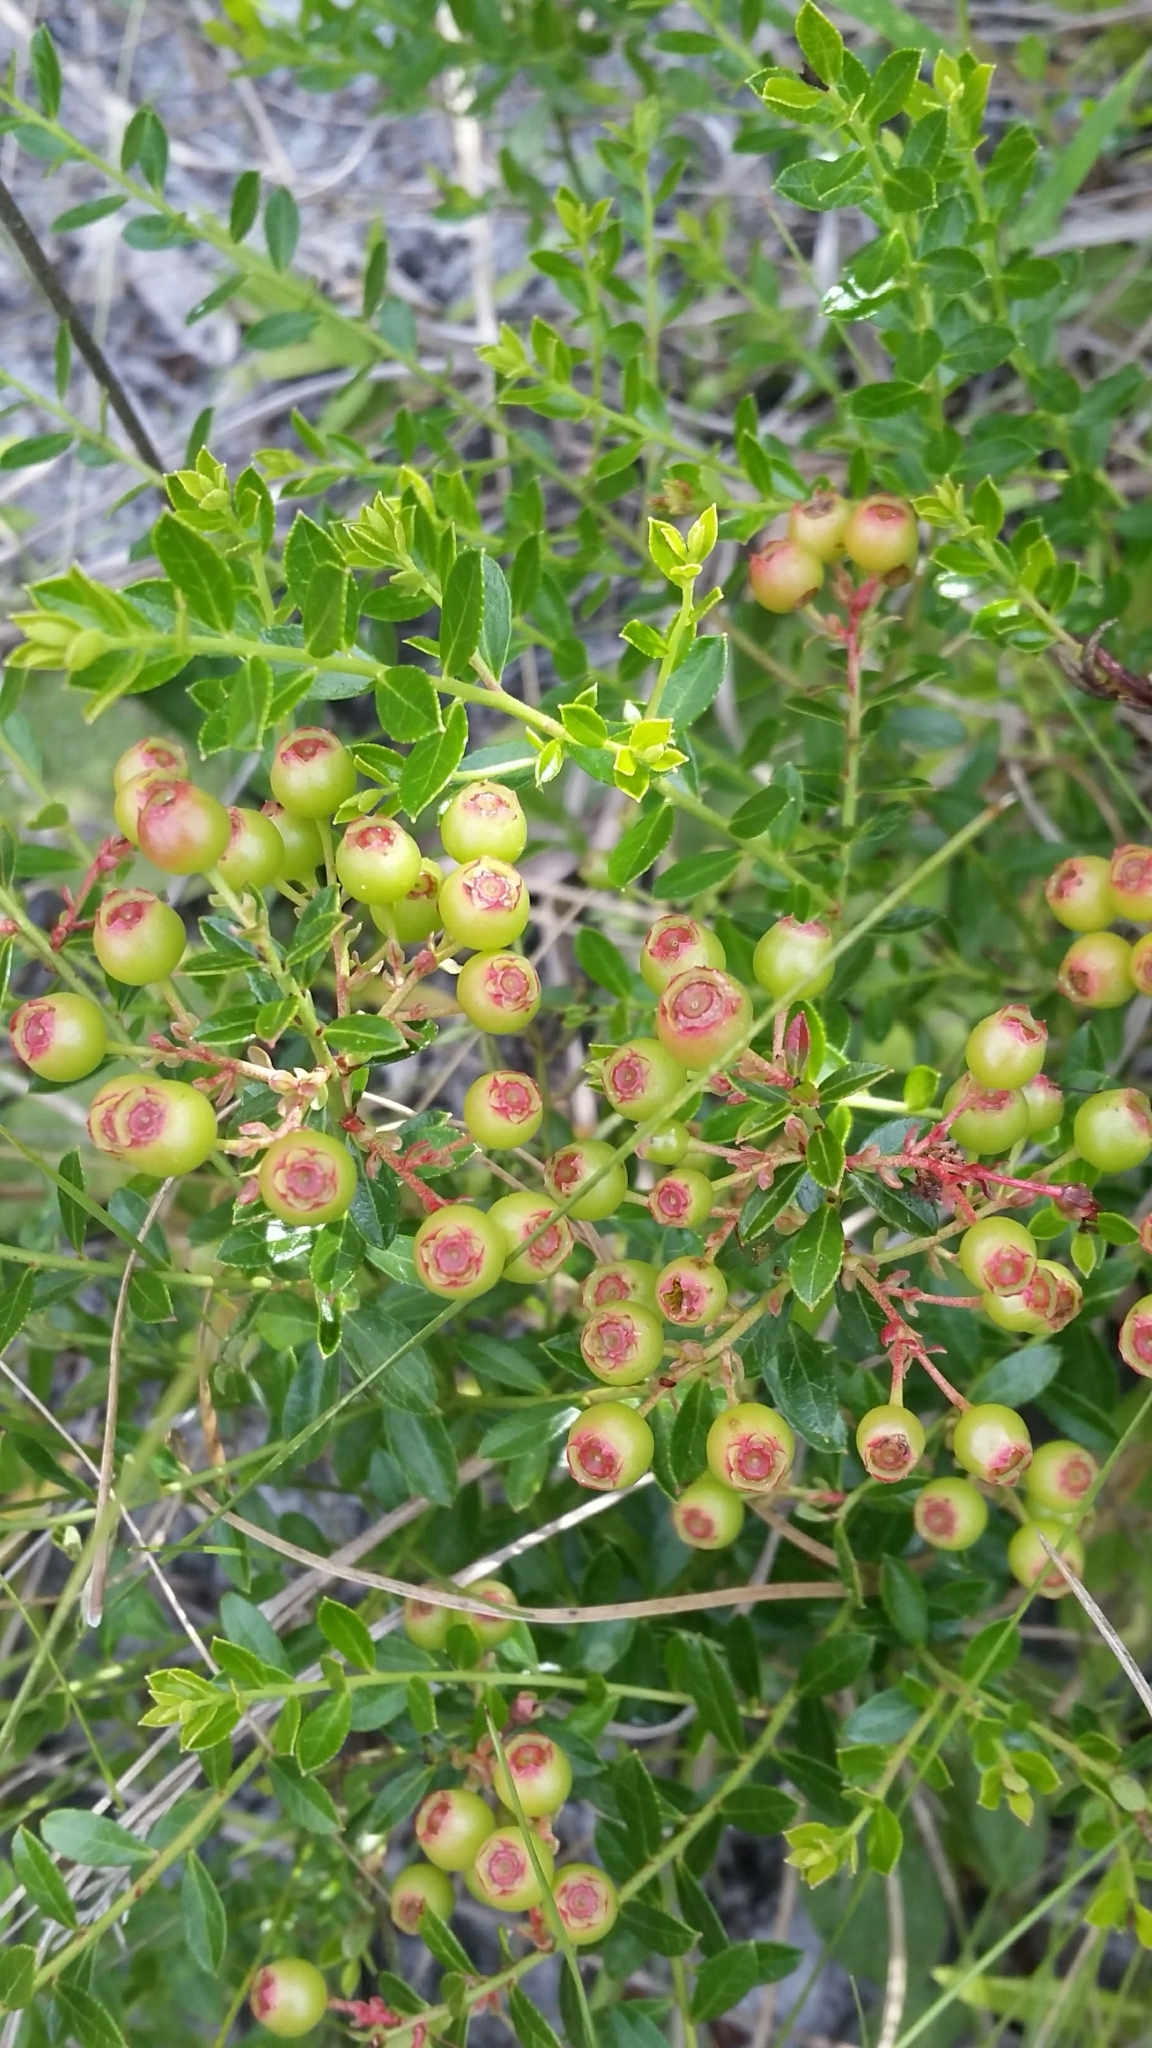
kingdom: Plantae
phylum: Tracheophyta
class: Magnoliopsida
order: Ericales
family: Ericaceae
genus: Vaccinium
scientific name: Vaccinium myrsinites
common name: Evergreen blueberry
